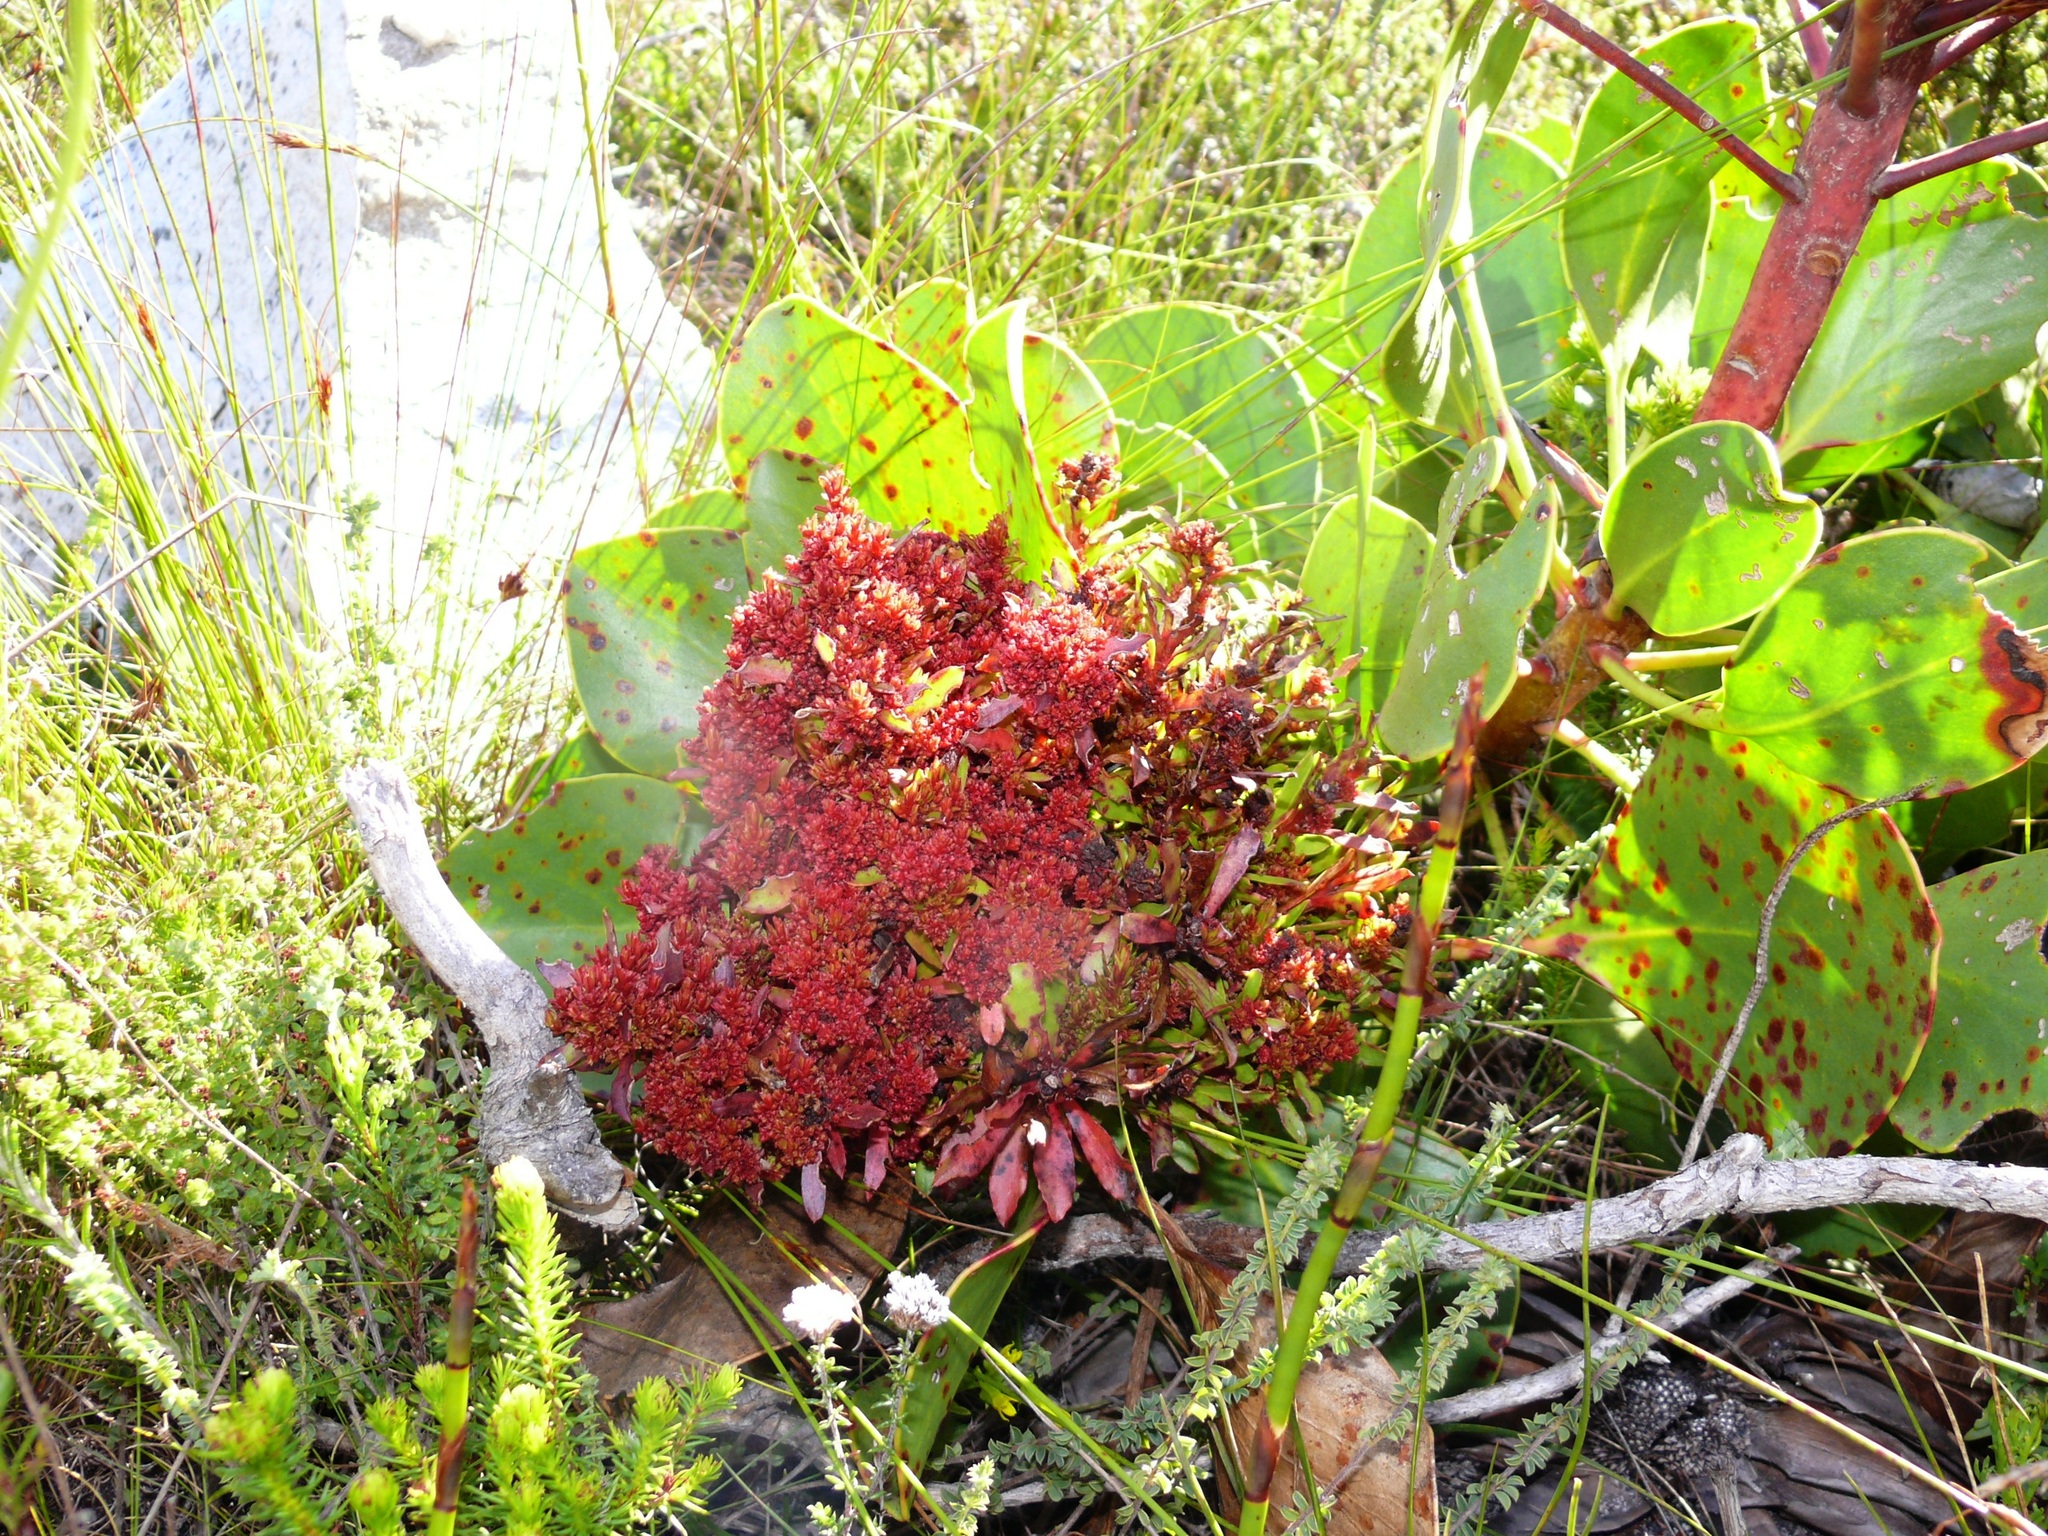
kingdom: Bacteria
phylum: Firmicutes
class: Bacilli
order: Acholeplasmatales
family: Acholeplasmataceae
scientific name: Acholeplasmataceae
